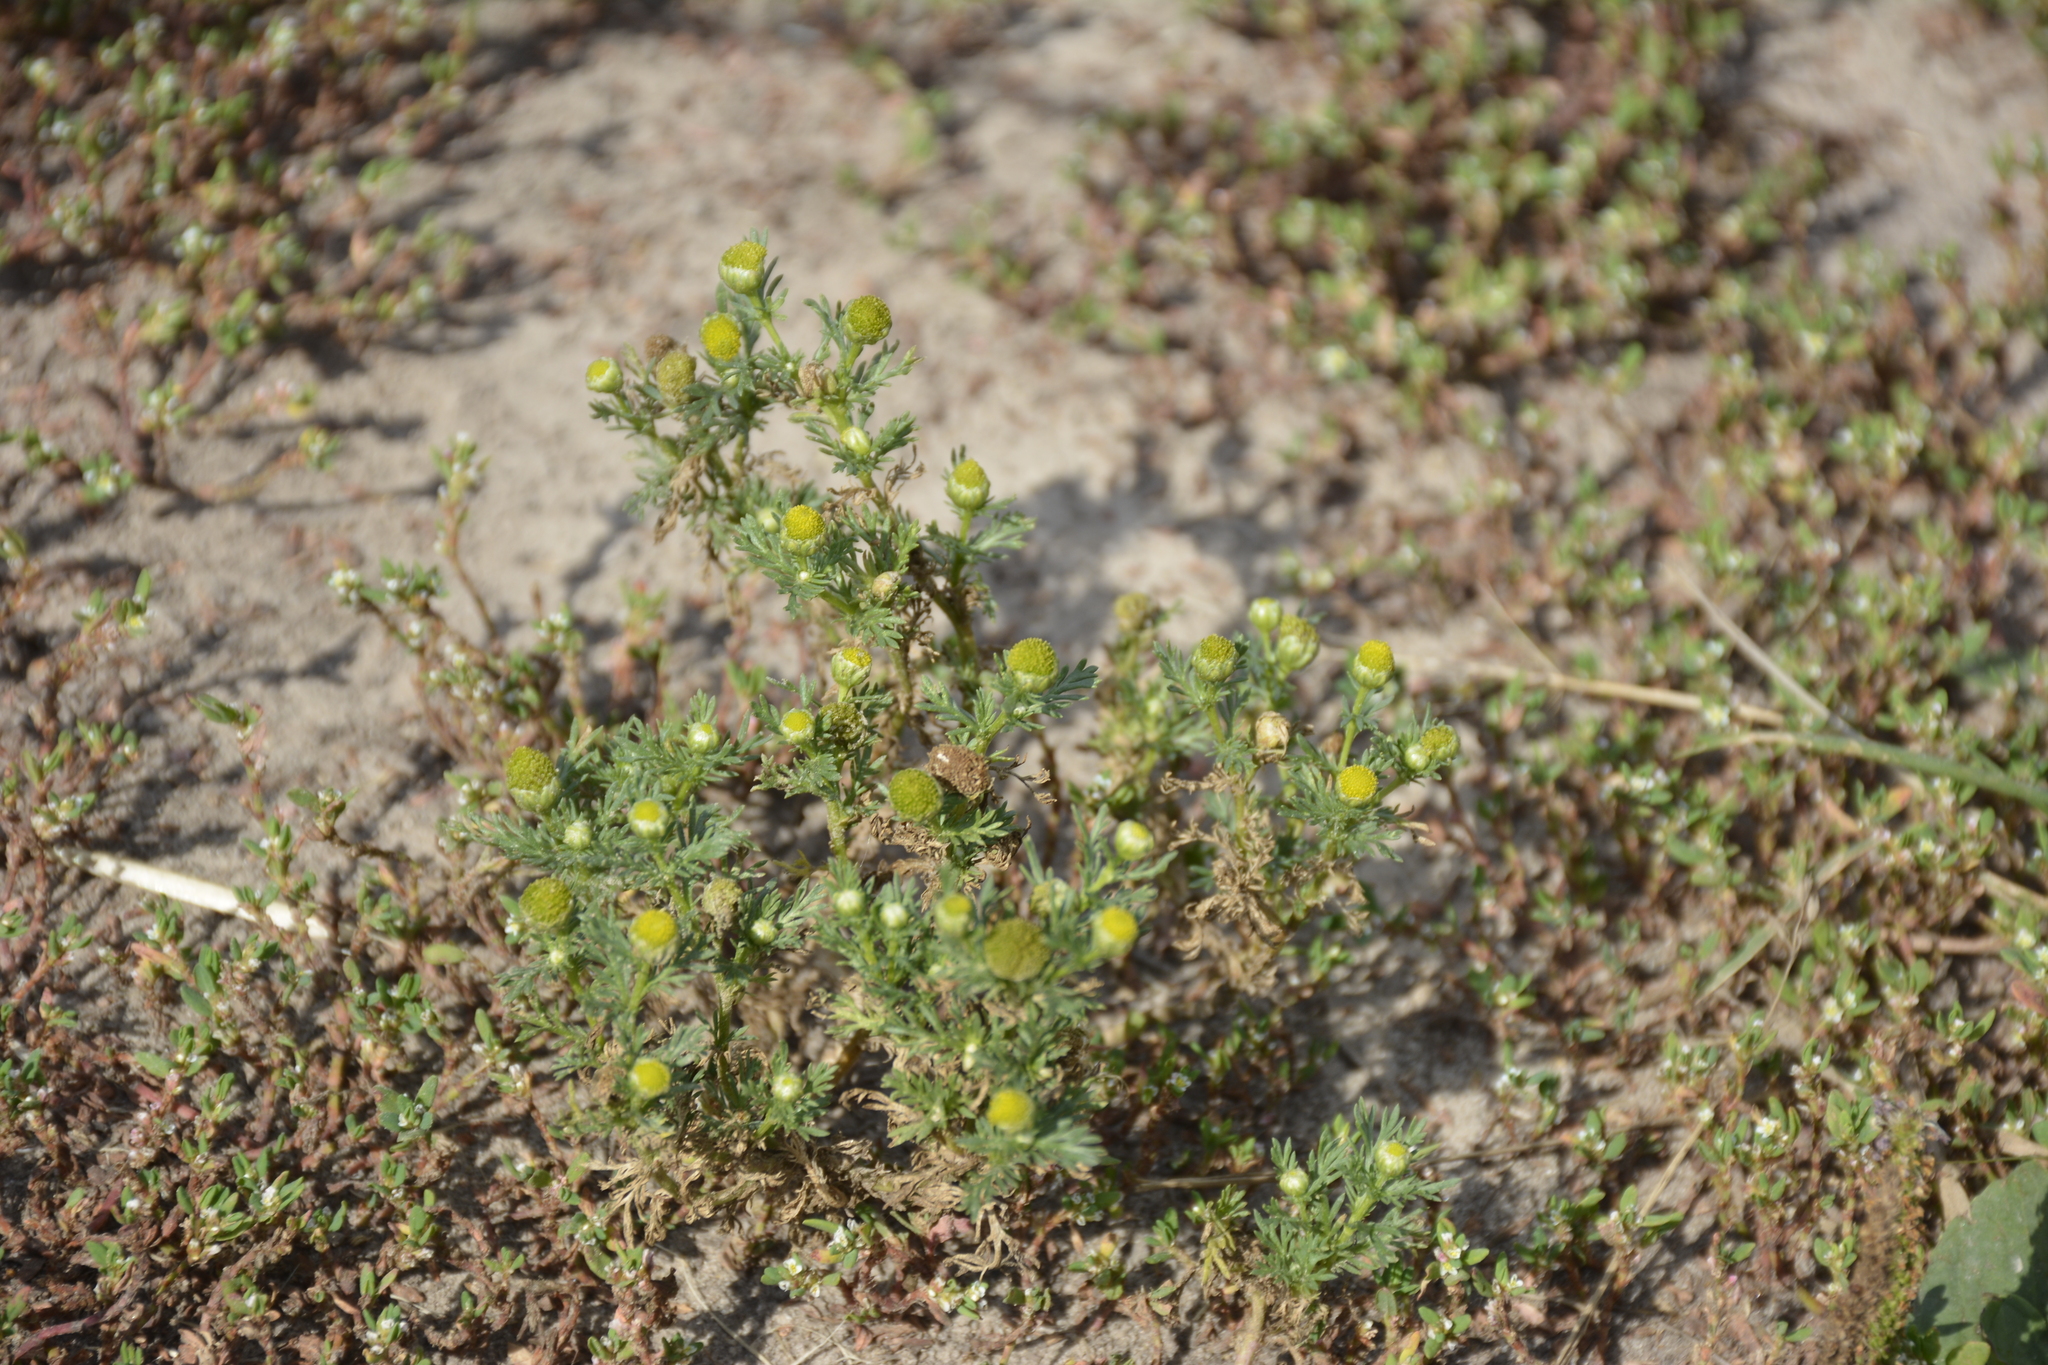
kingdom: Plantae
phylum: Tracheophyta
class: Magnoliopsida
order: Asterales
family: Asteraceae
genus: Matricaria
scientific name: Matricaria discoidea
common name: Disc mayweed
